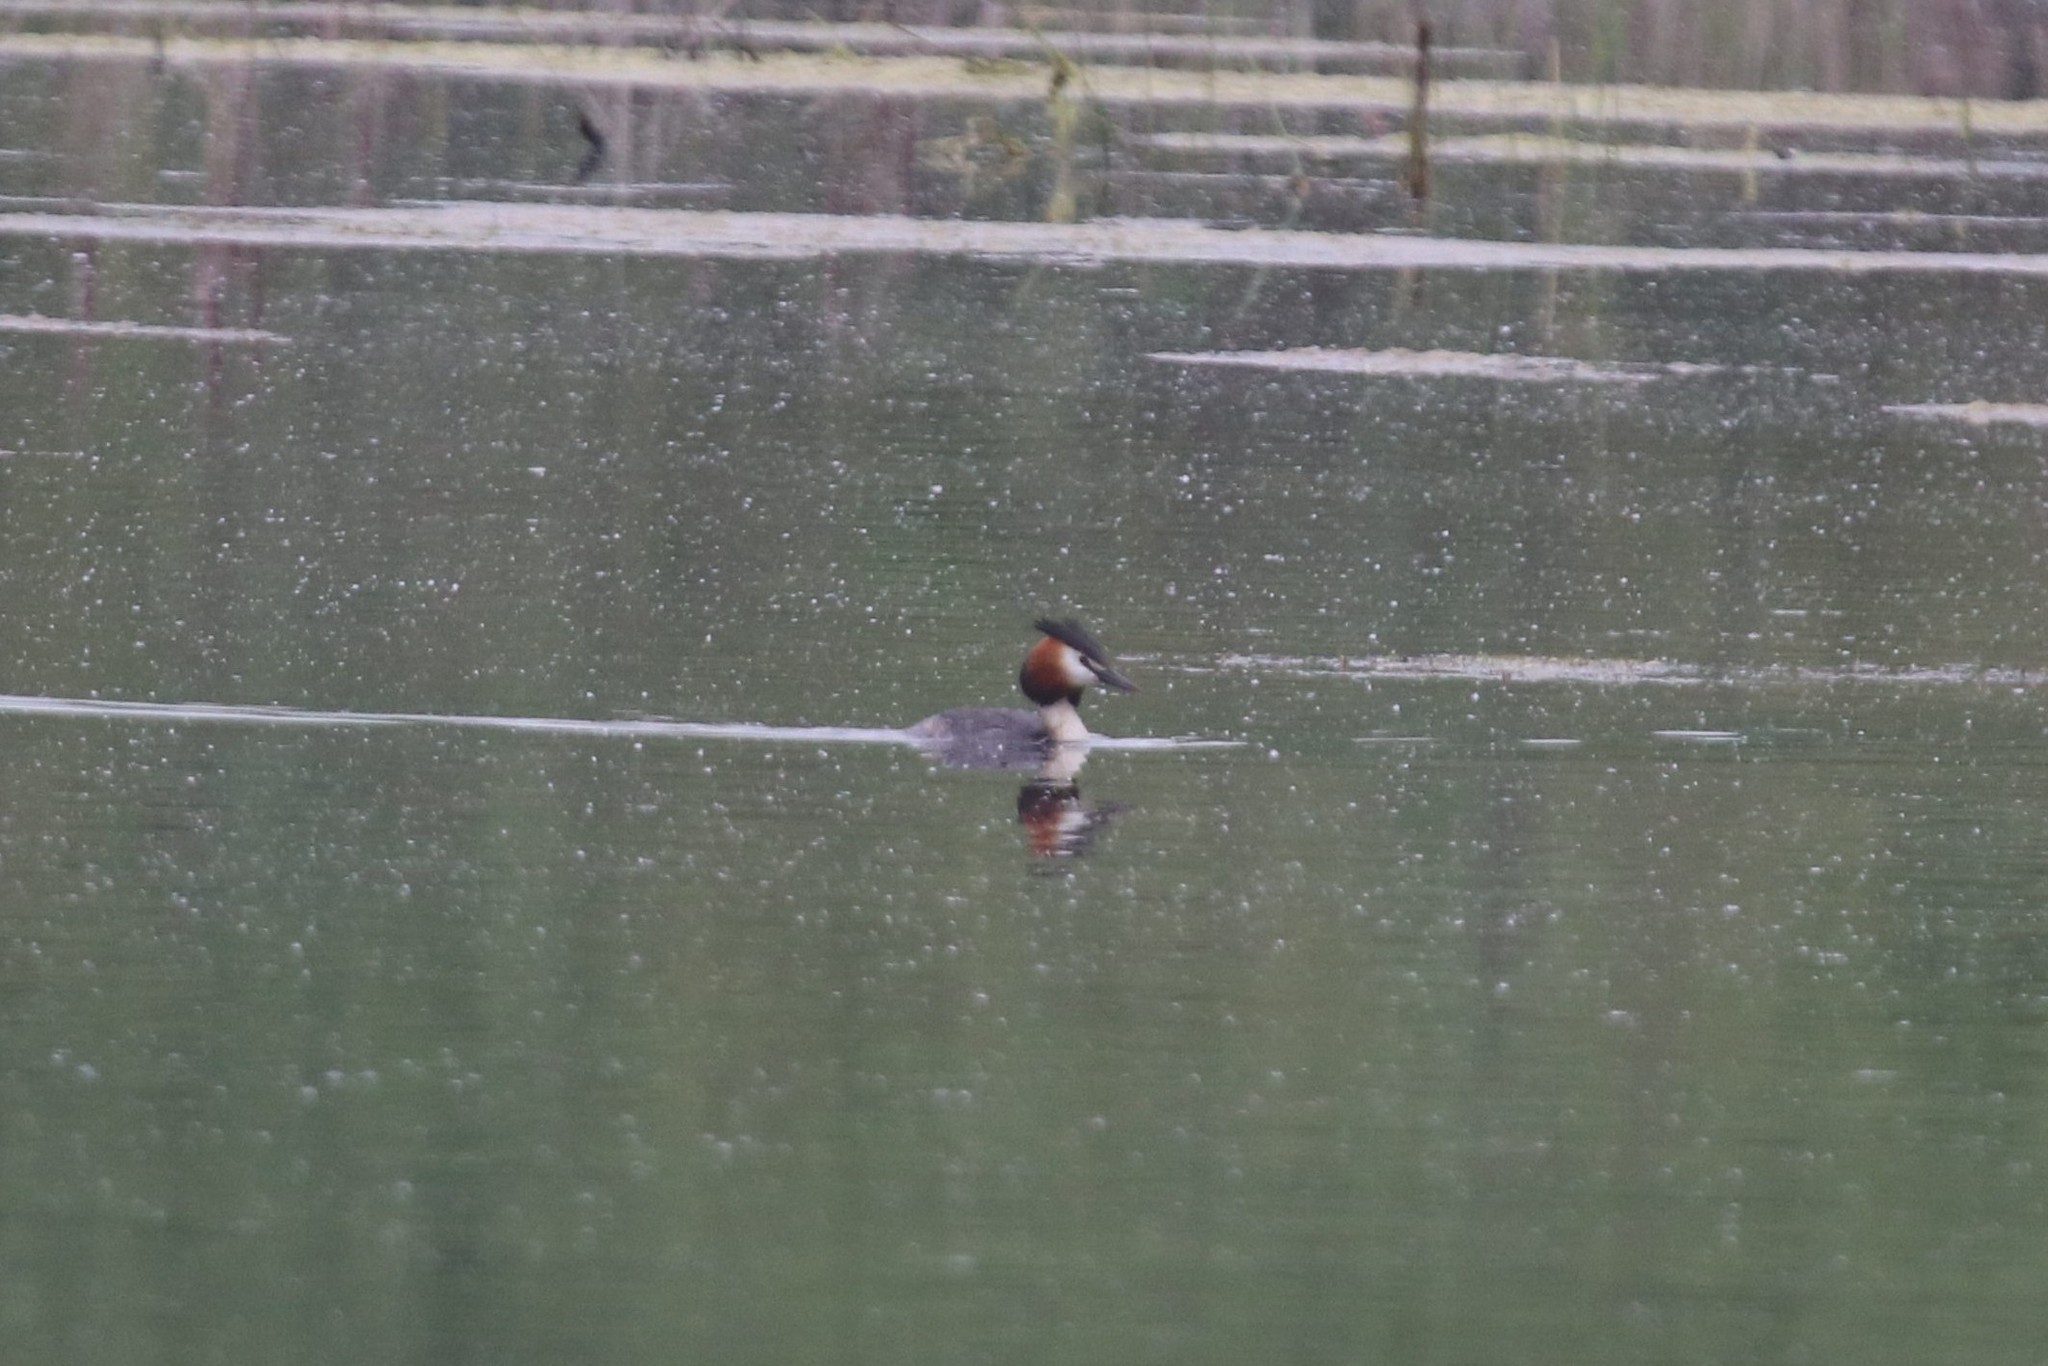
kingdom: Animalia
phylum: Chordata
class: Aves
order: Podicipediformes
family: Podicipedidae
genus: Podiceps
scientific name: Podiceps cristatus
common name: Great crested grebe
